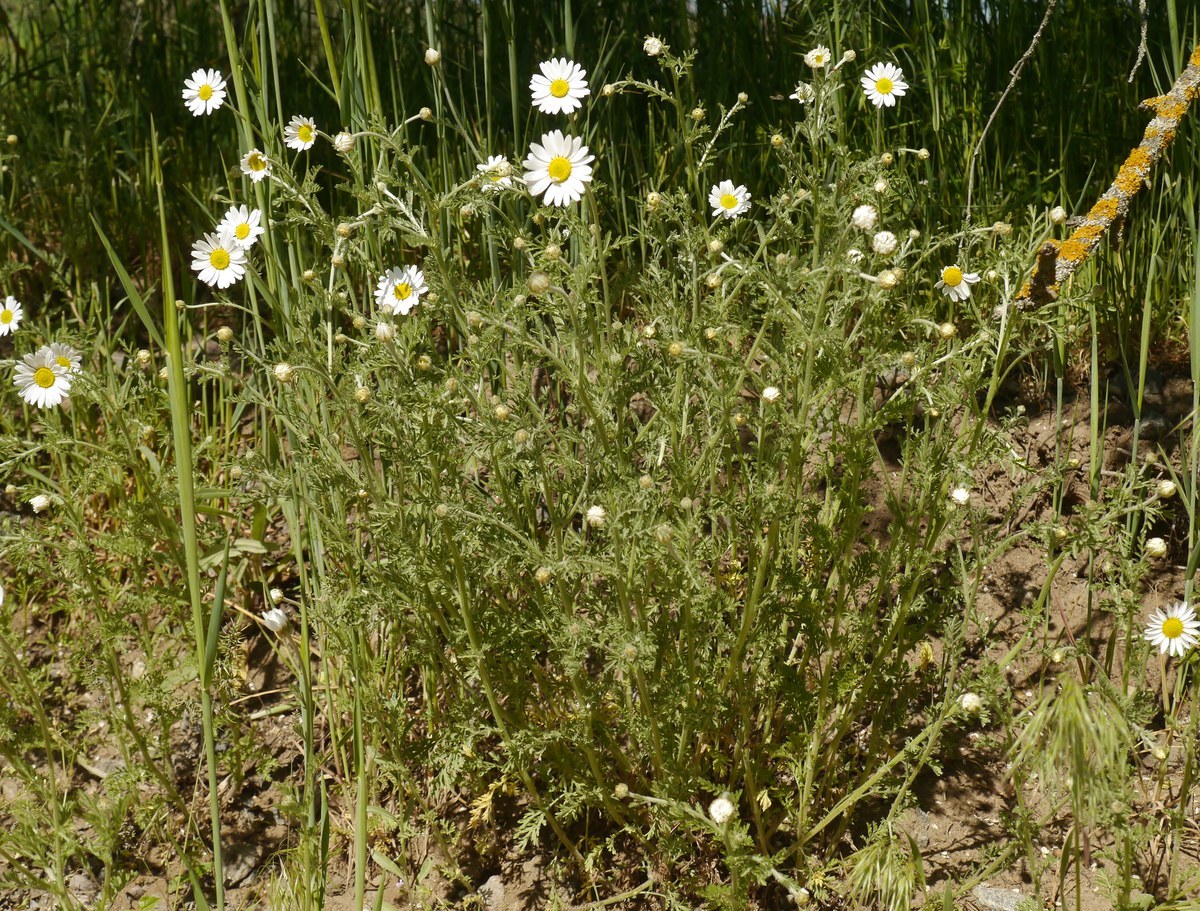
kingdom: Plantae
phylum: Tracheophyta
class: Magnoliopsida
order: Asterales
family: Asteraceae
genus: Anthemis
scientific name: Anthemis ruthenica
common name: Eastern chamomile
